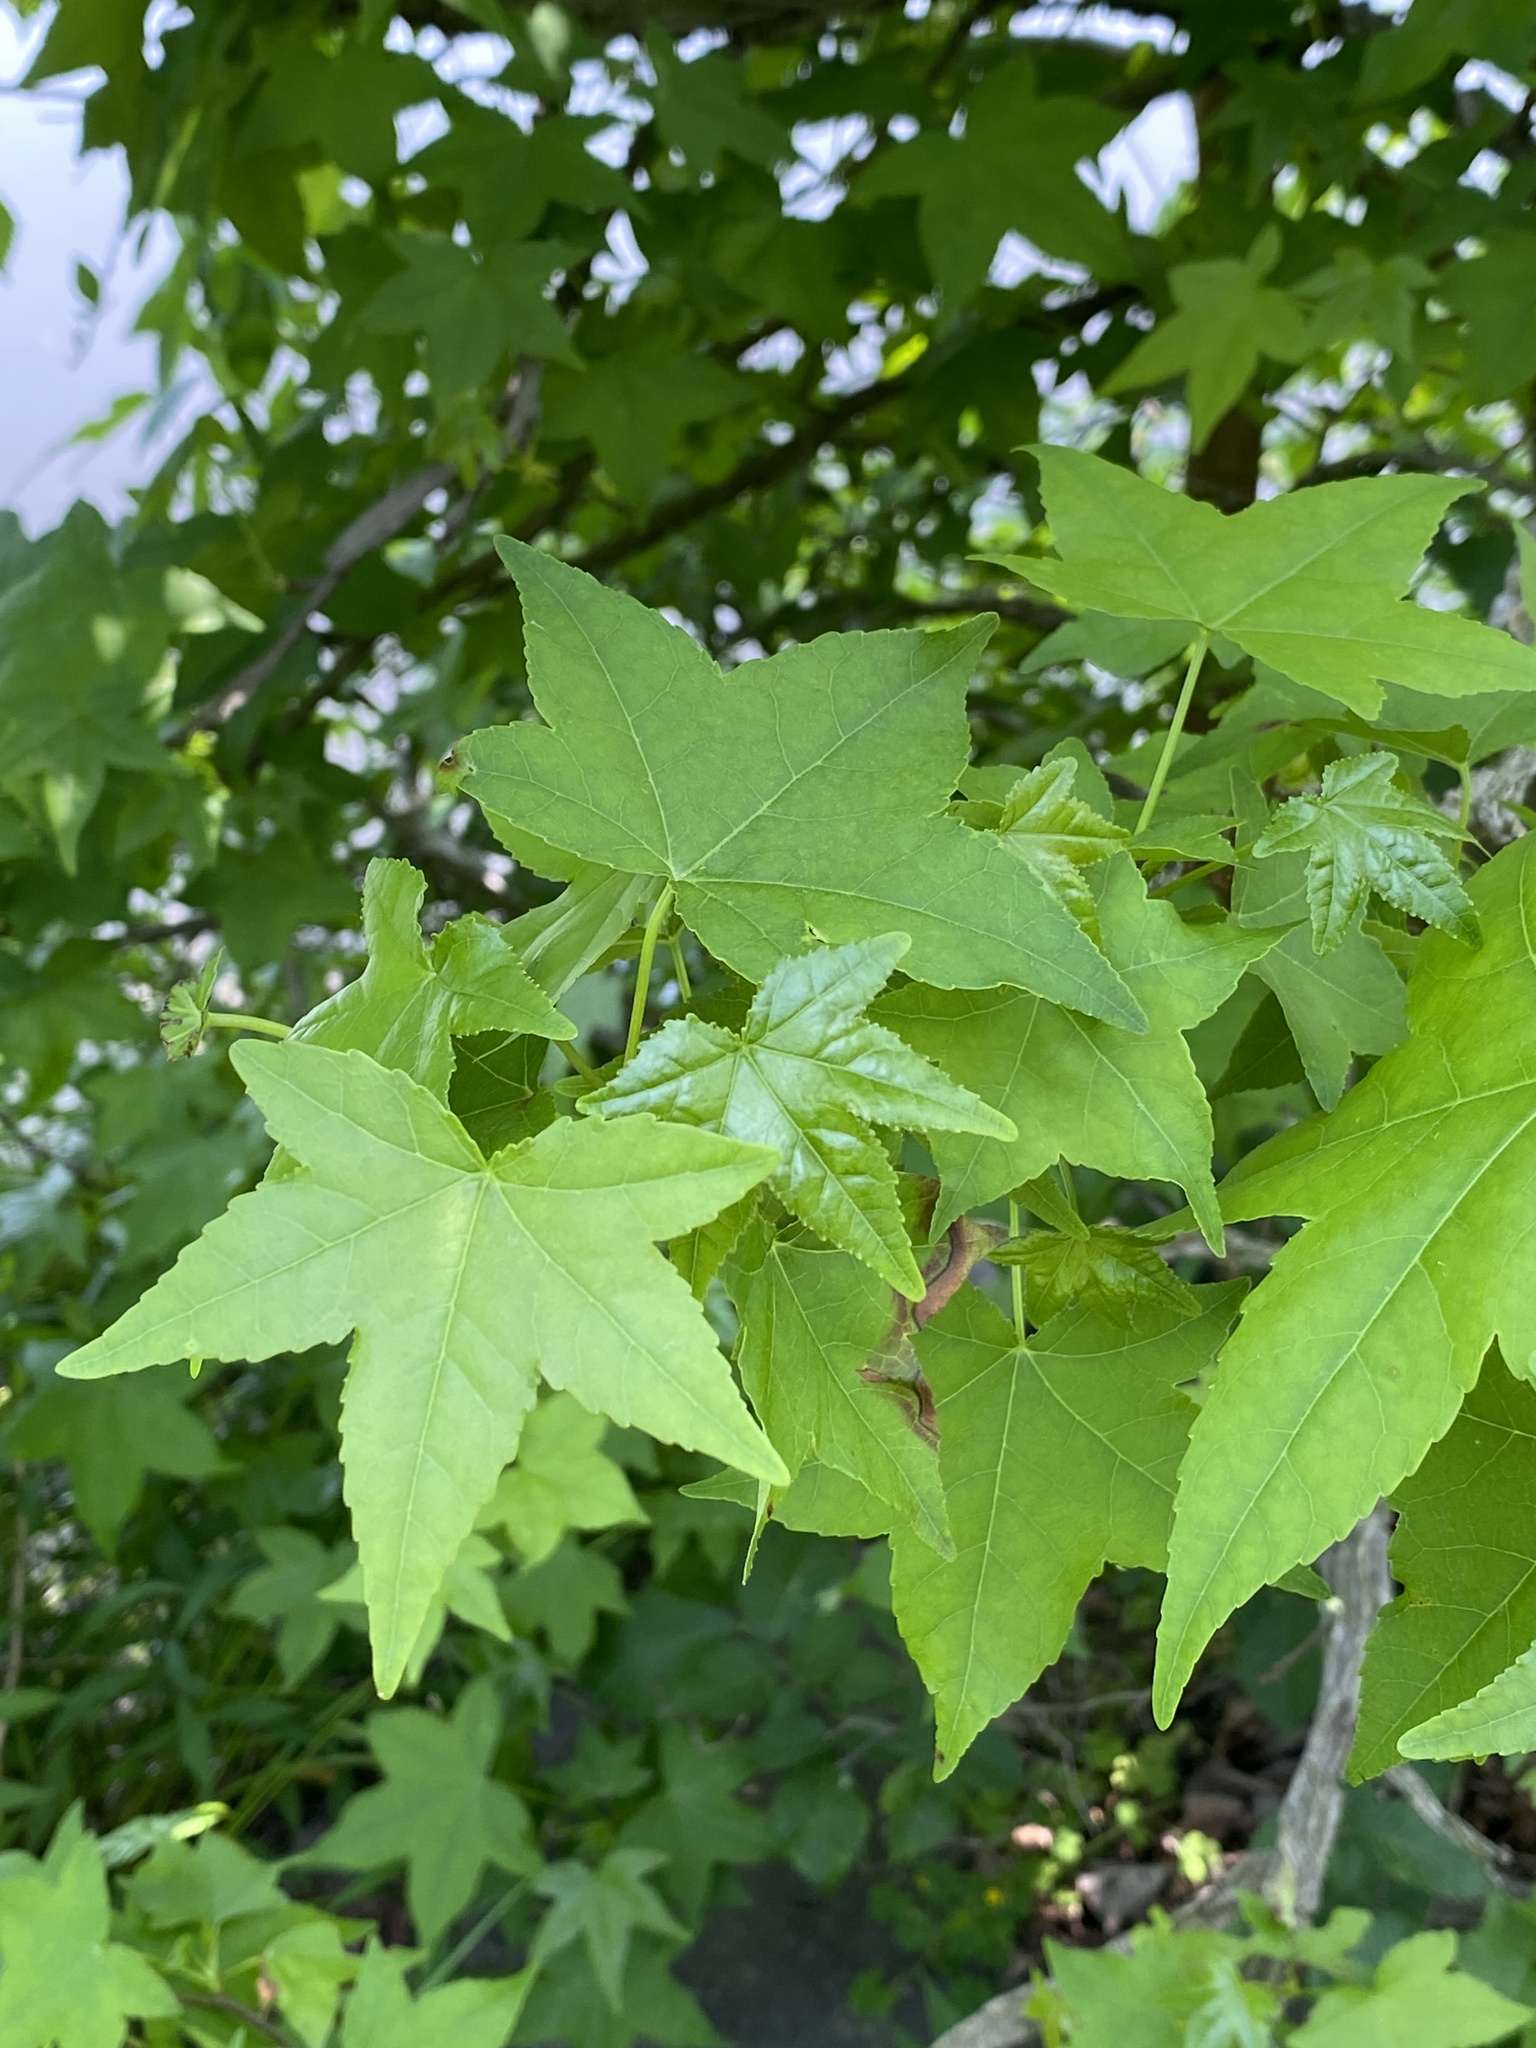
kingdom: Plantae
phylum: Tracheophyta
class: Magnoliopsida
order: Saxifragales
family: Altingiaceae
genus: Liquidambar
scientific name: Liquidambar styraciflua
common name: Sweet gum
